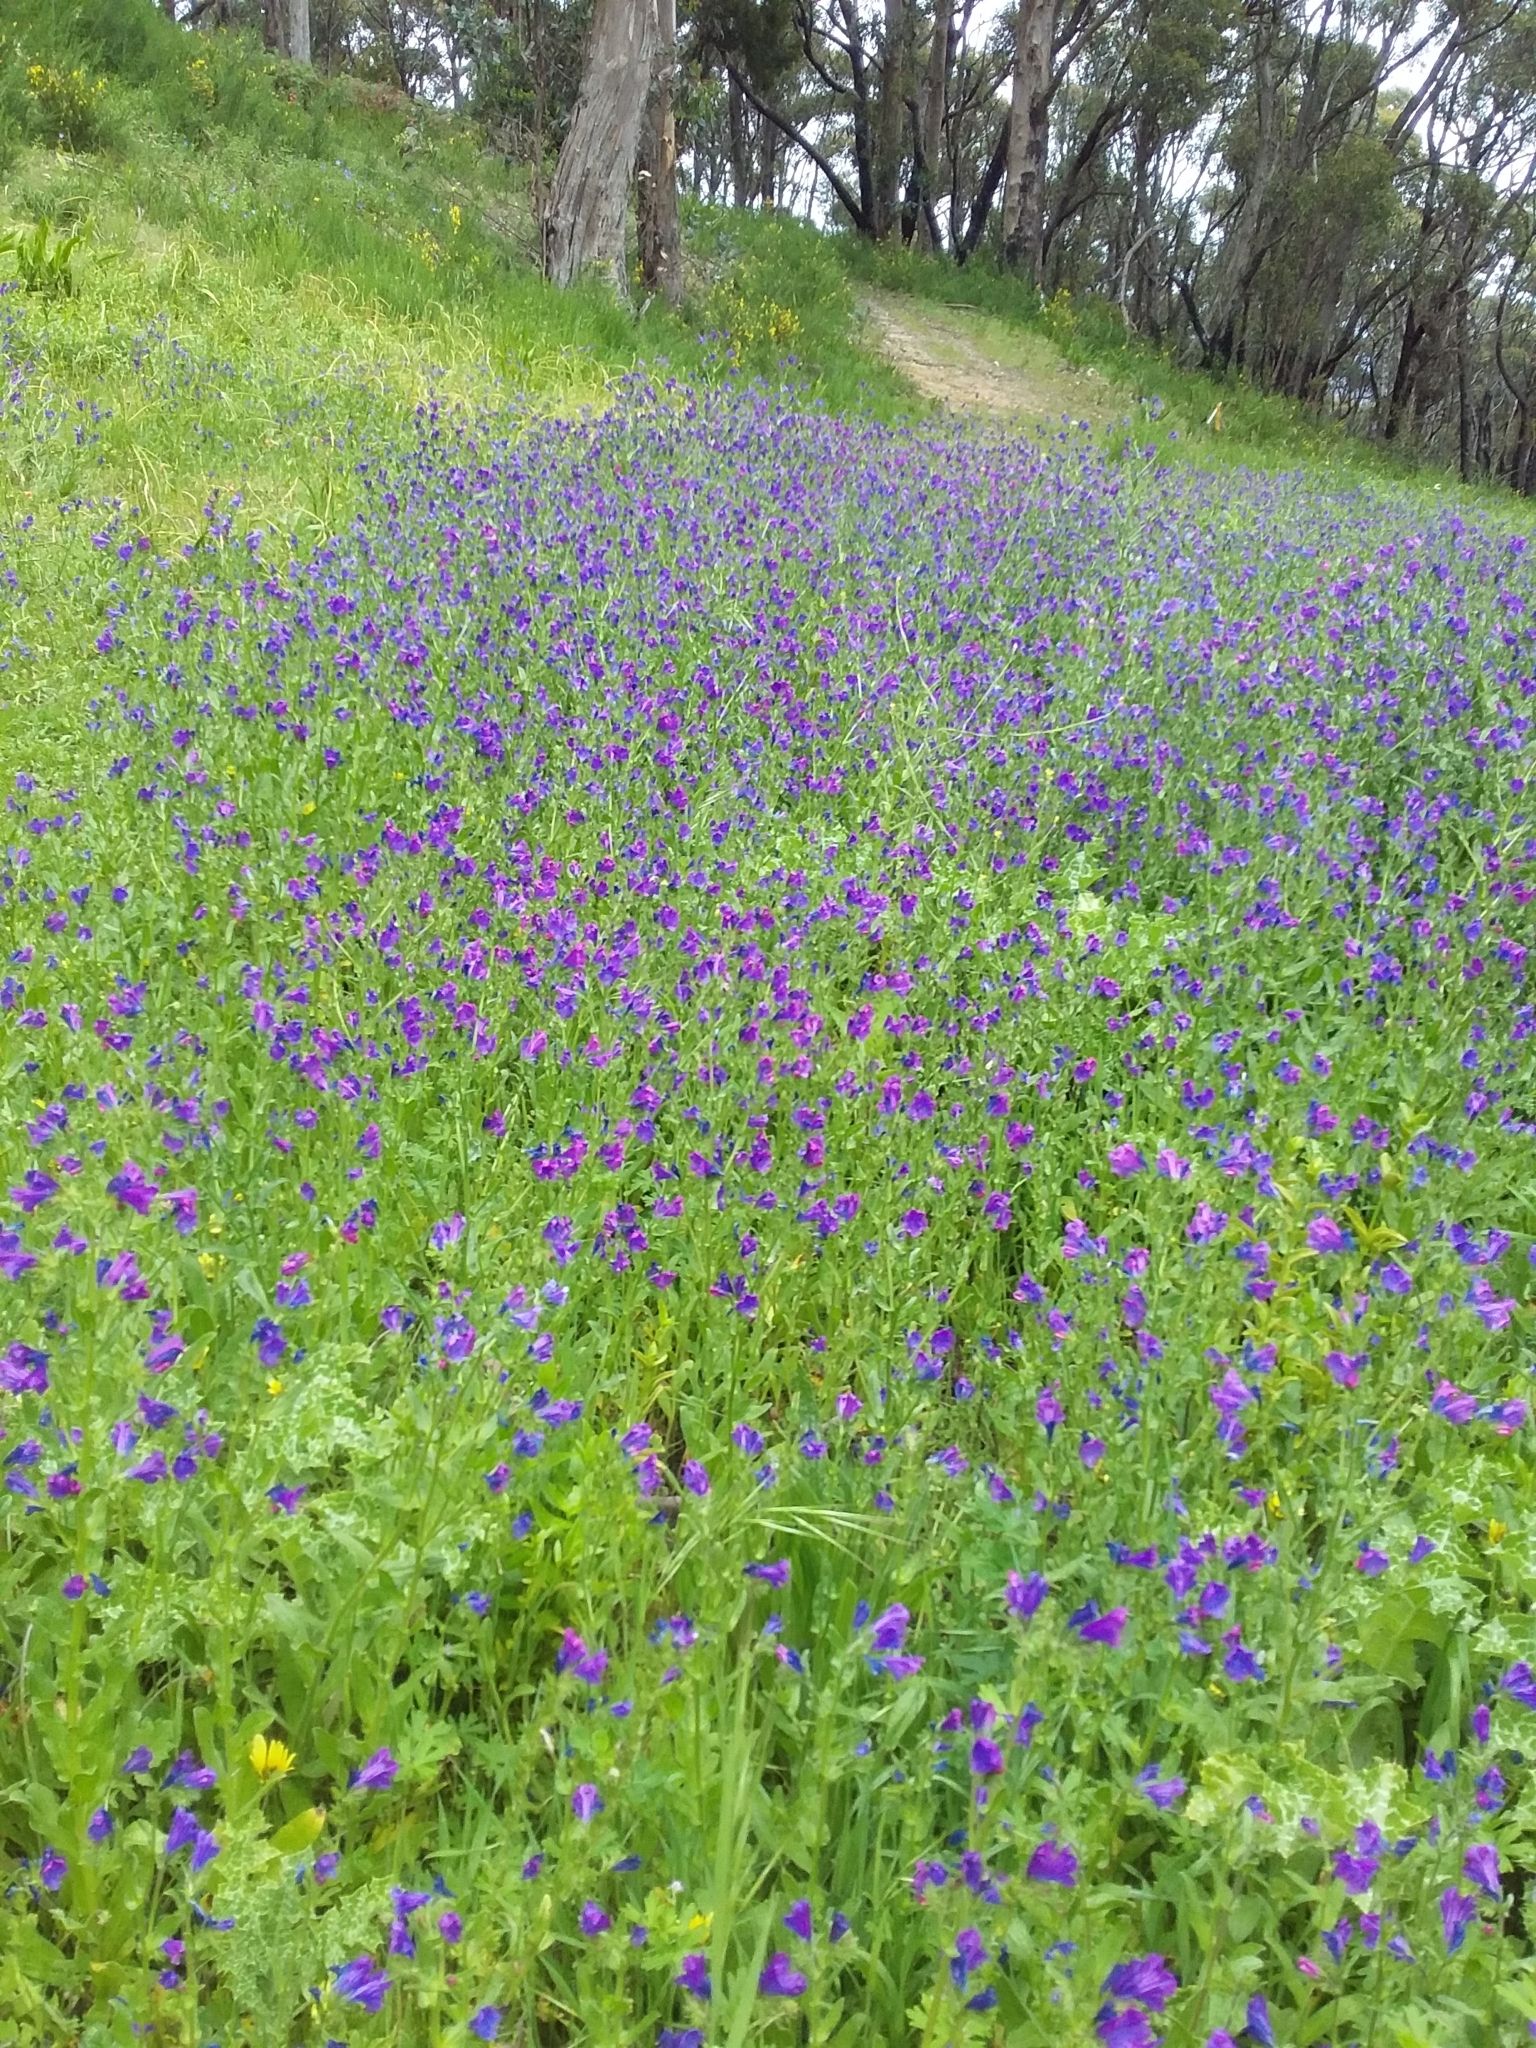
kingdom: Plantae
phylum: Tracheophyta
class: Magnoliopsida
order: Boraginales
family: Boraginaceae
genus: Echium
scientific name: Echium plantagineum
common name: Purple viper's-bugloss
